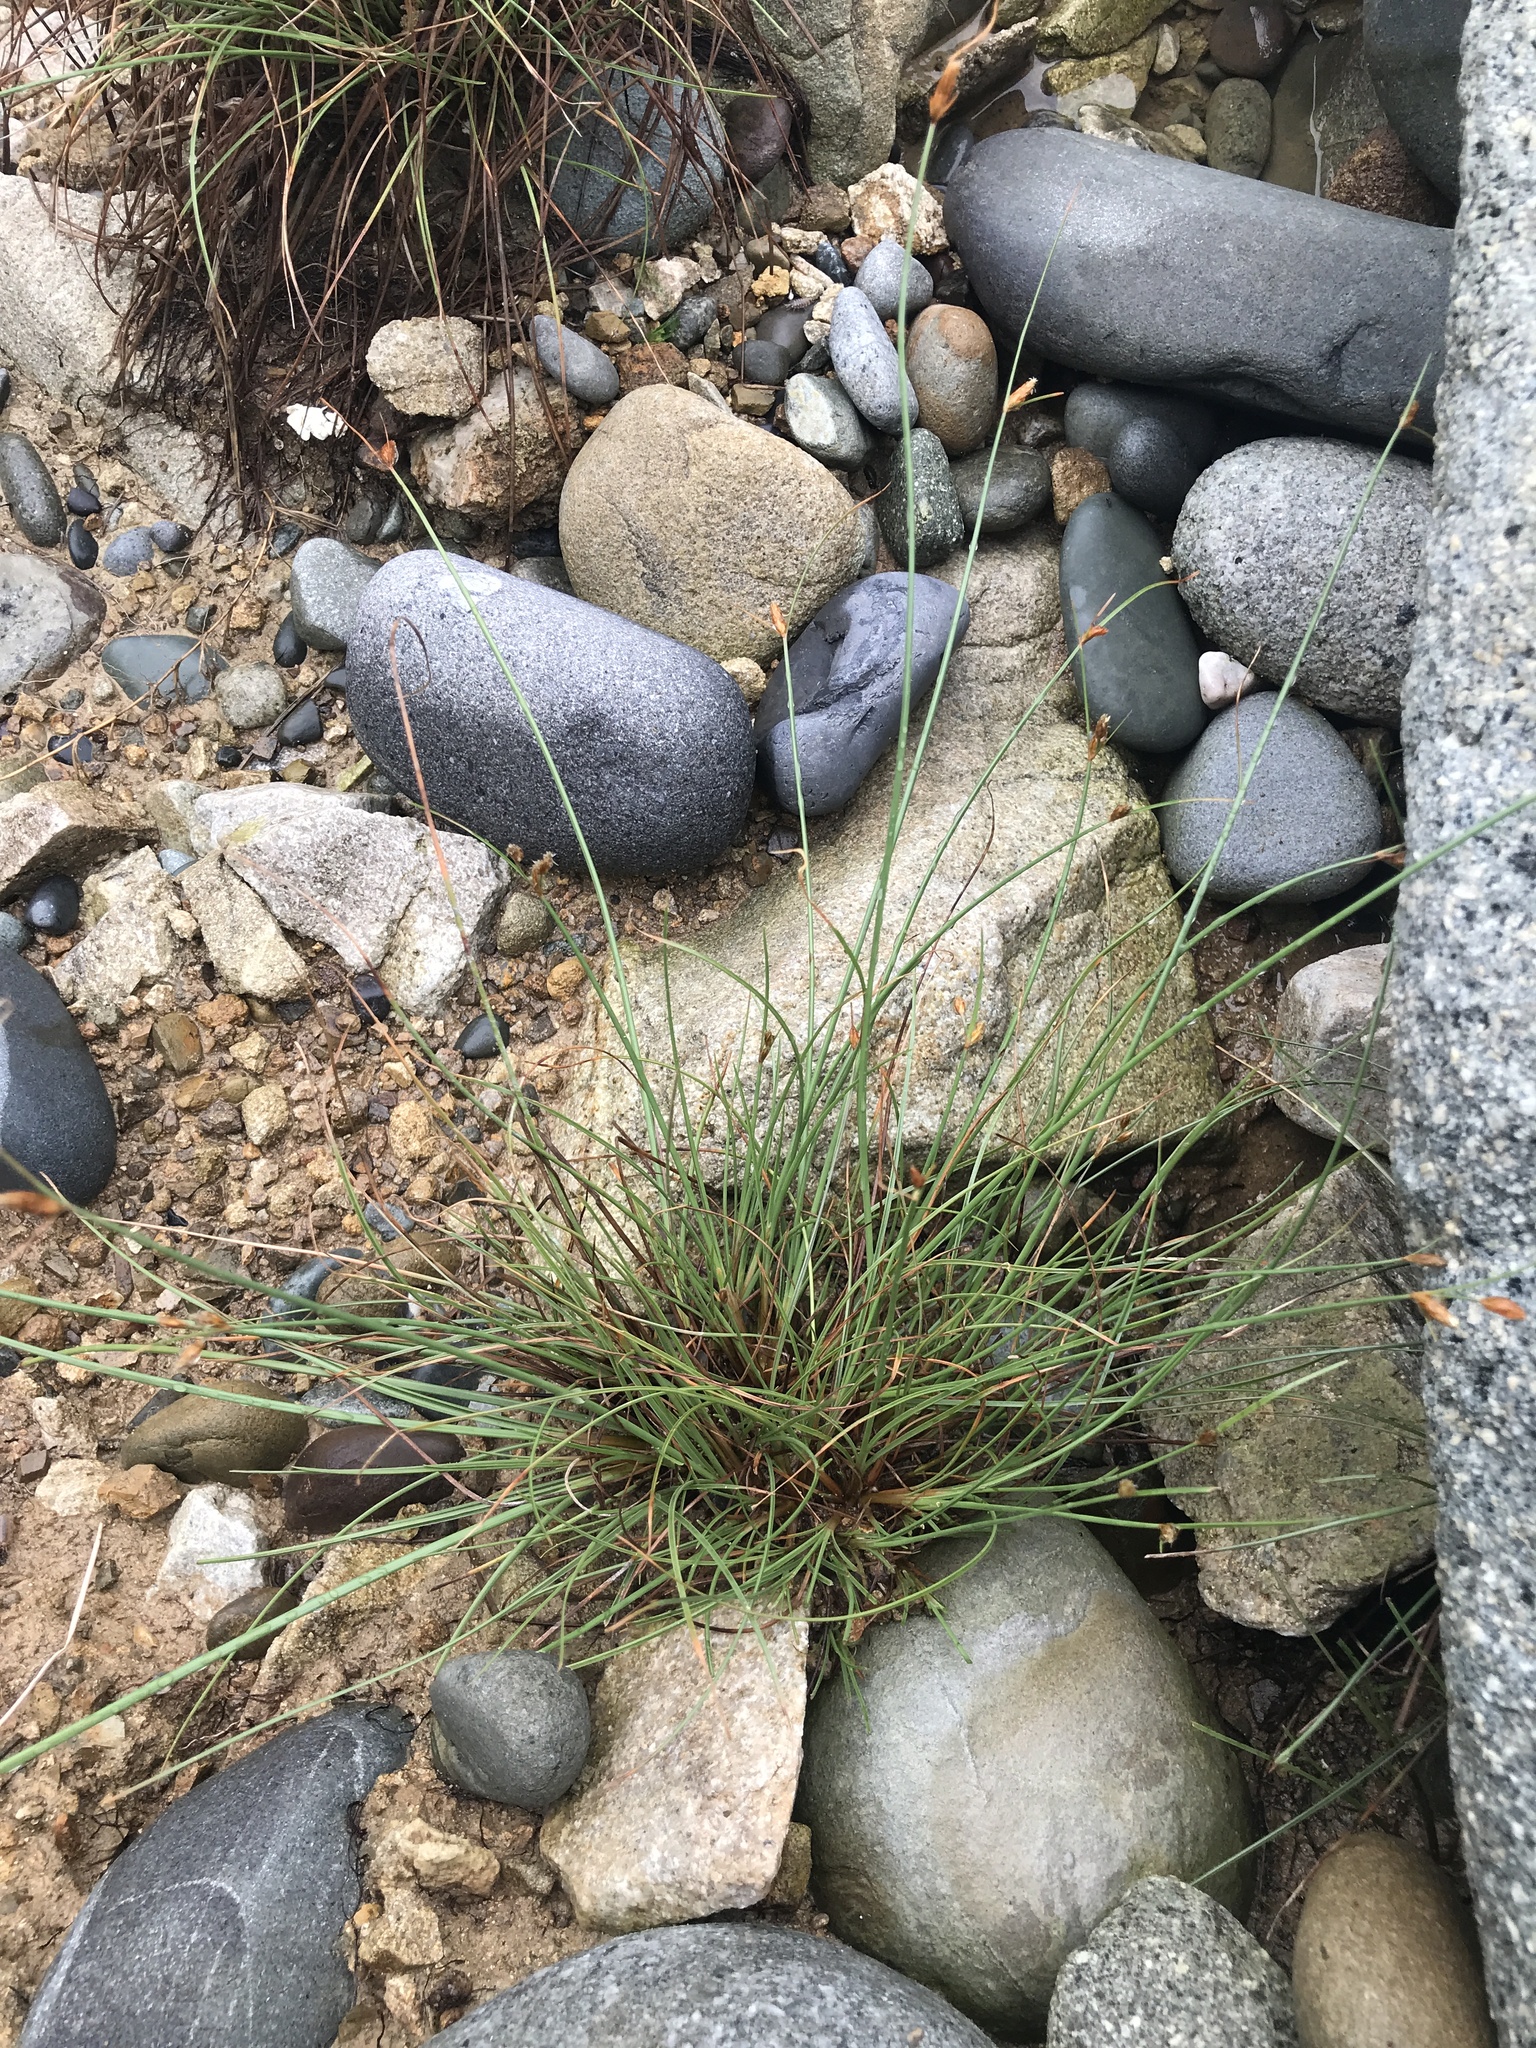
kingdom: Plantae
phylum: Tracheophyta
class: Liliopsida
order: Poales
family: Cyperaceae
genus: Fimbristylis
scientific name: Fimbristylis tristachya
